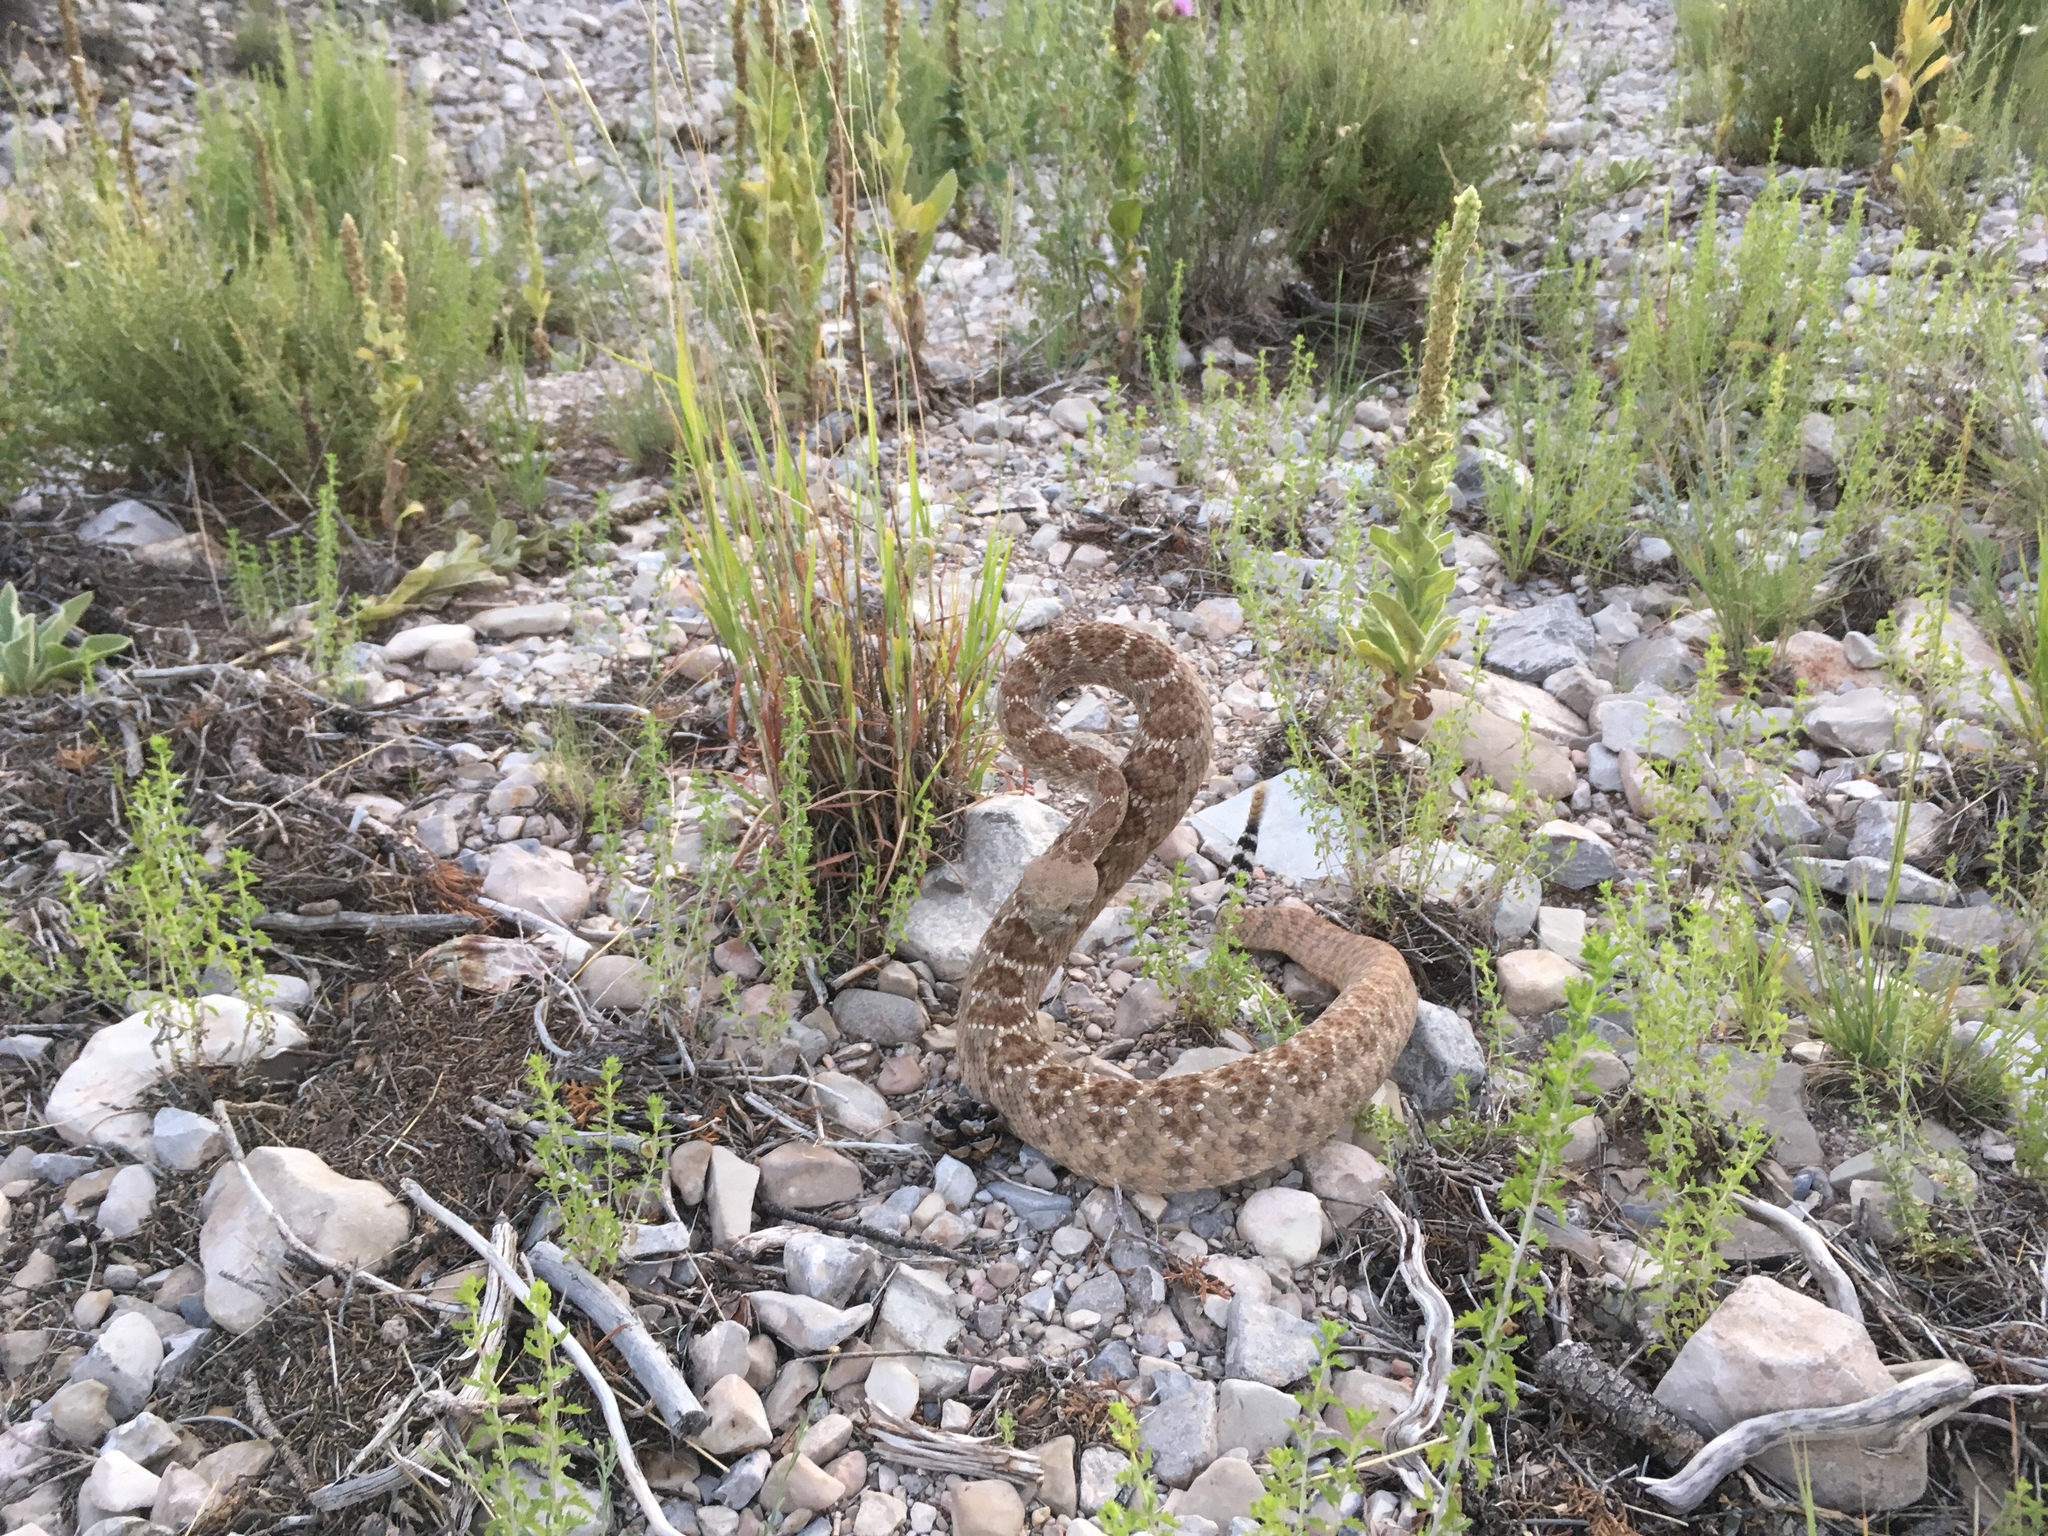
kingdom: Animalia
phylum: Chordata
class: Squamata
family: Viperidae
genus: Crotalus
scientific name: Crotalus atrox
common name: Western diamond-backed rattlesnake
